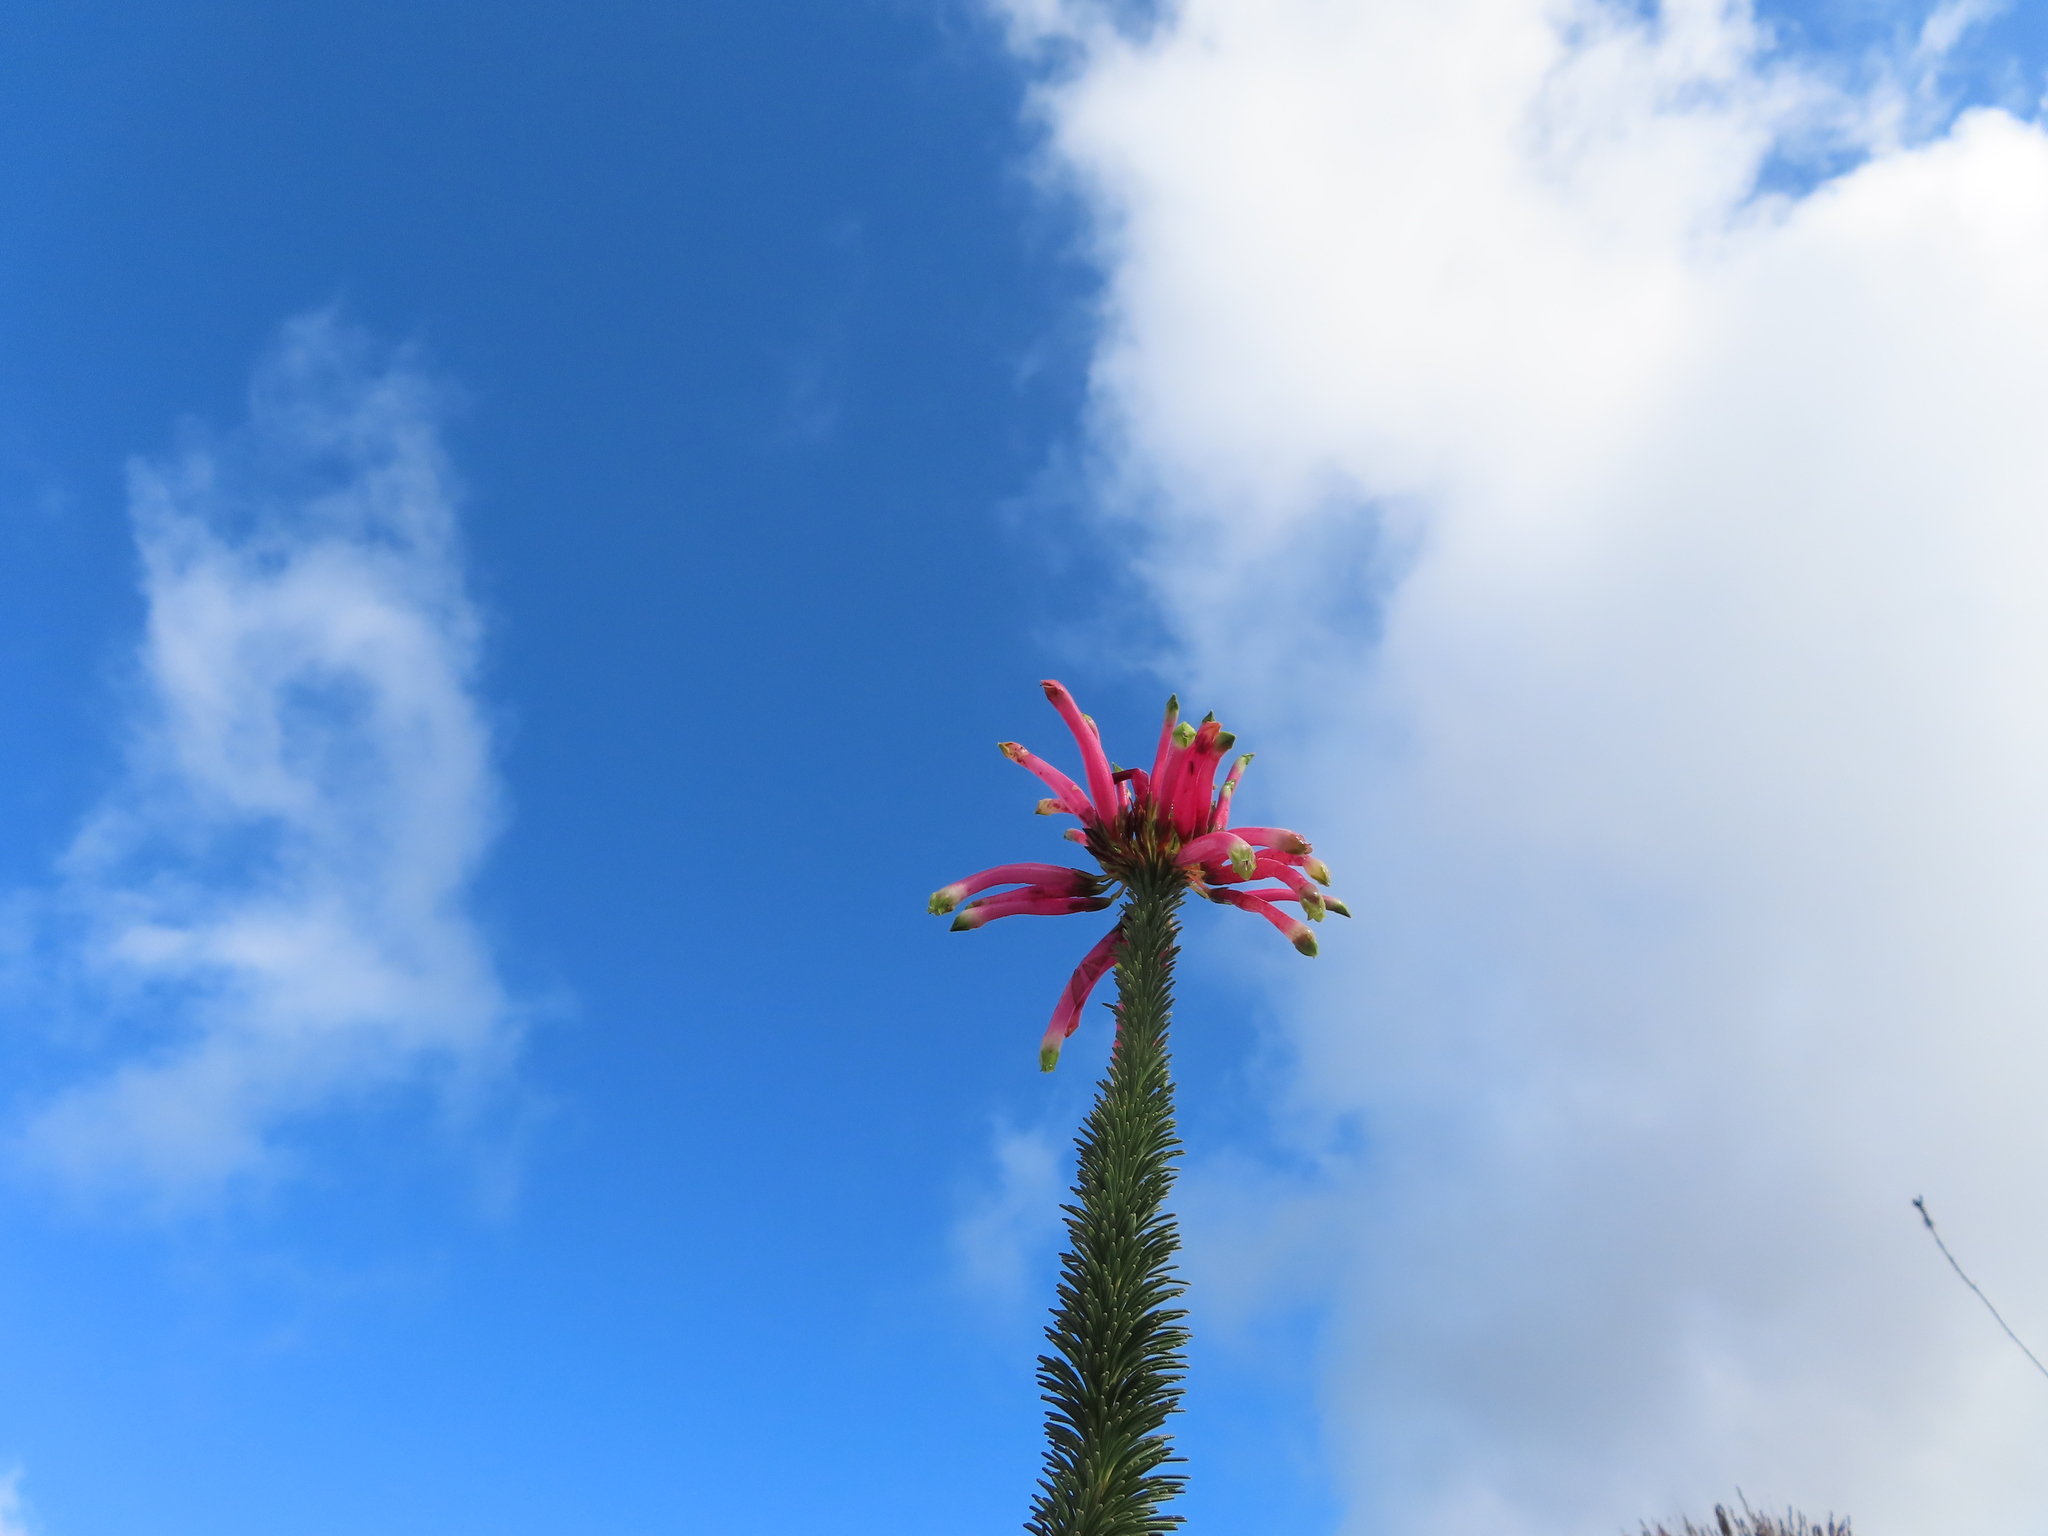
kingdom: Plantae
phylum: Tracheophyta
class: Magnoliopsida
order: Ericales
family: Ericaceae
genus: Erica
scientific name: Erica fascicularis
